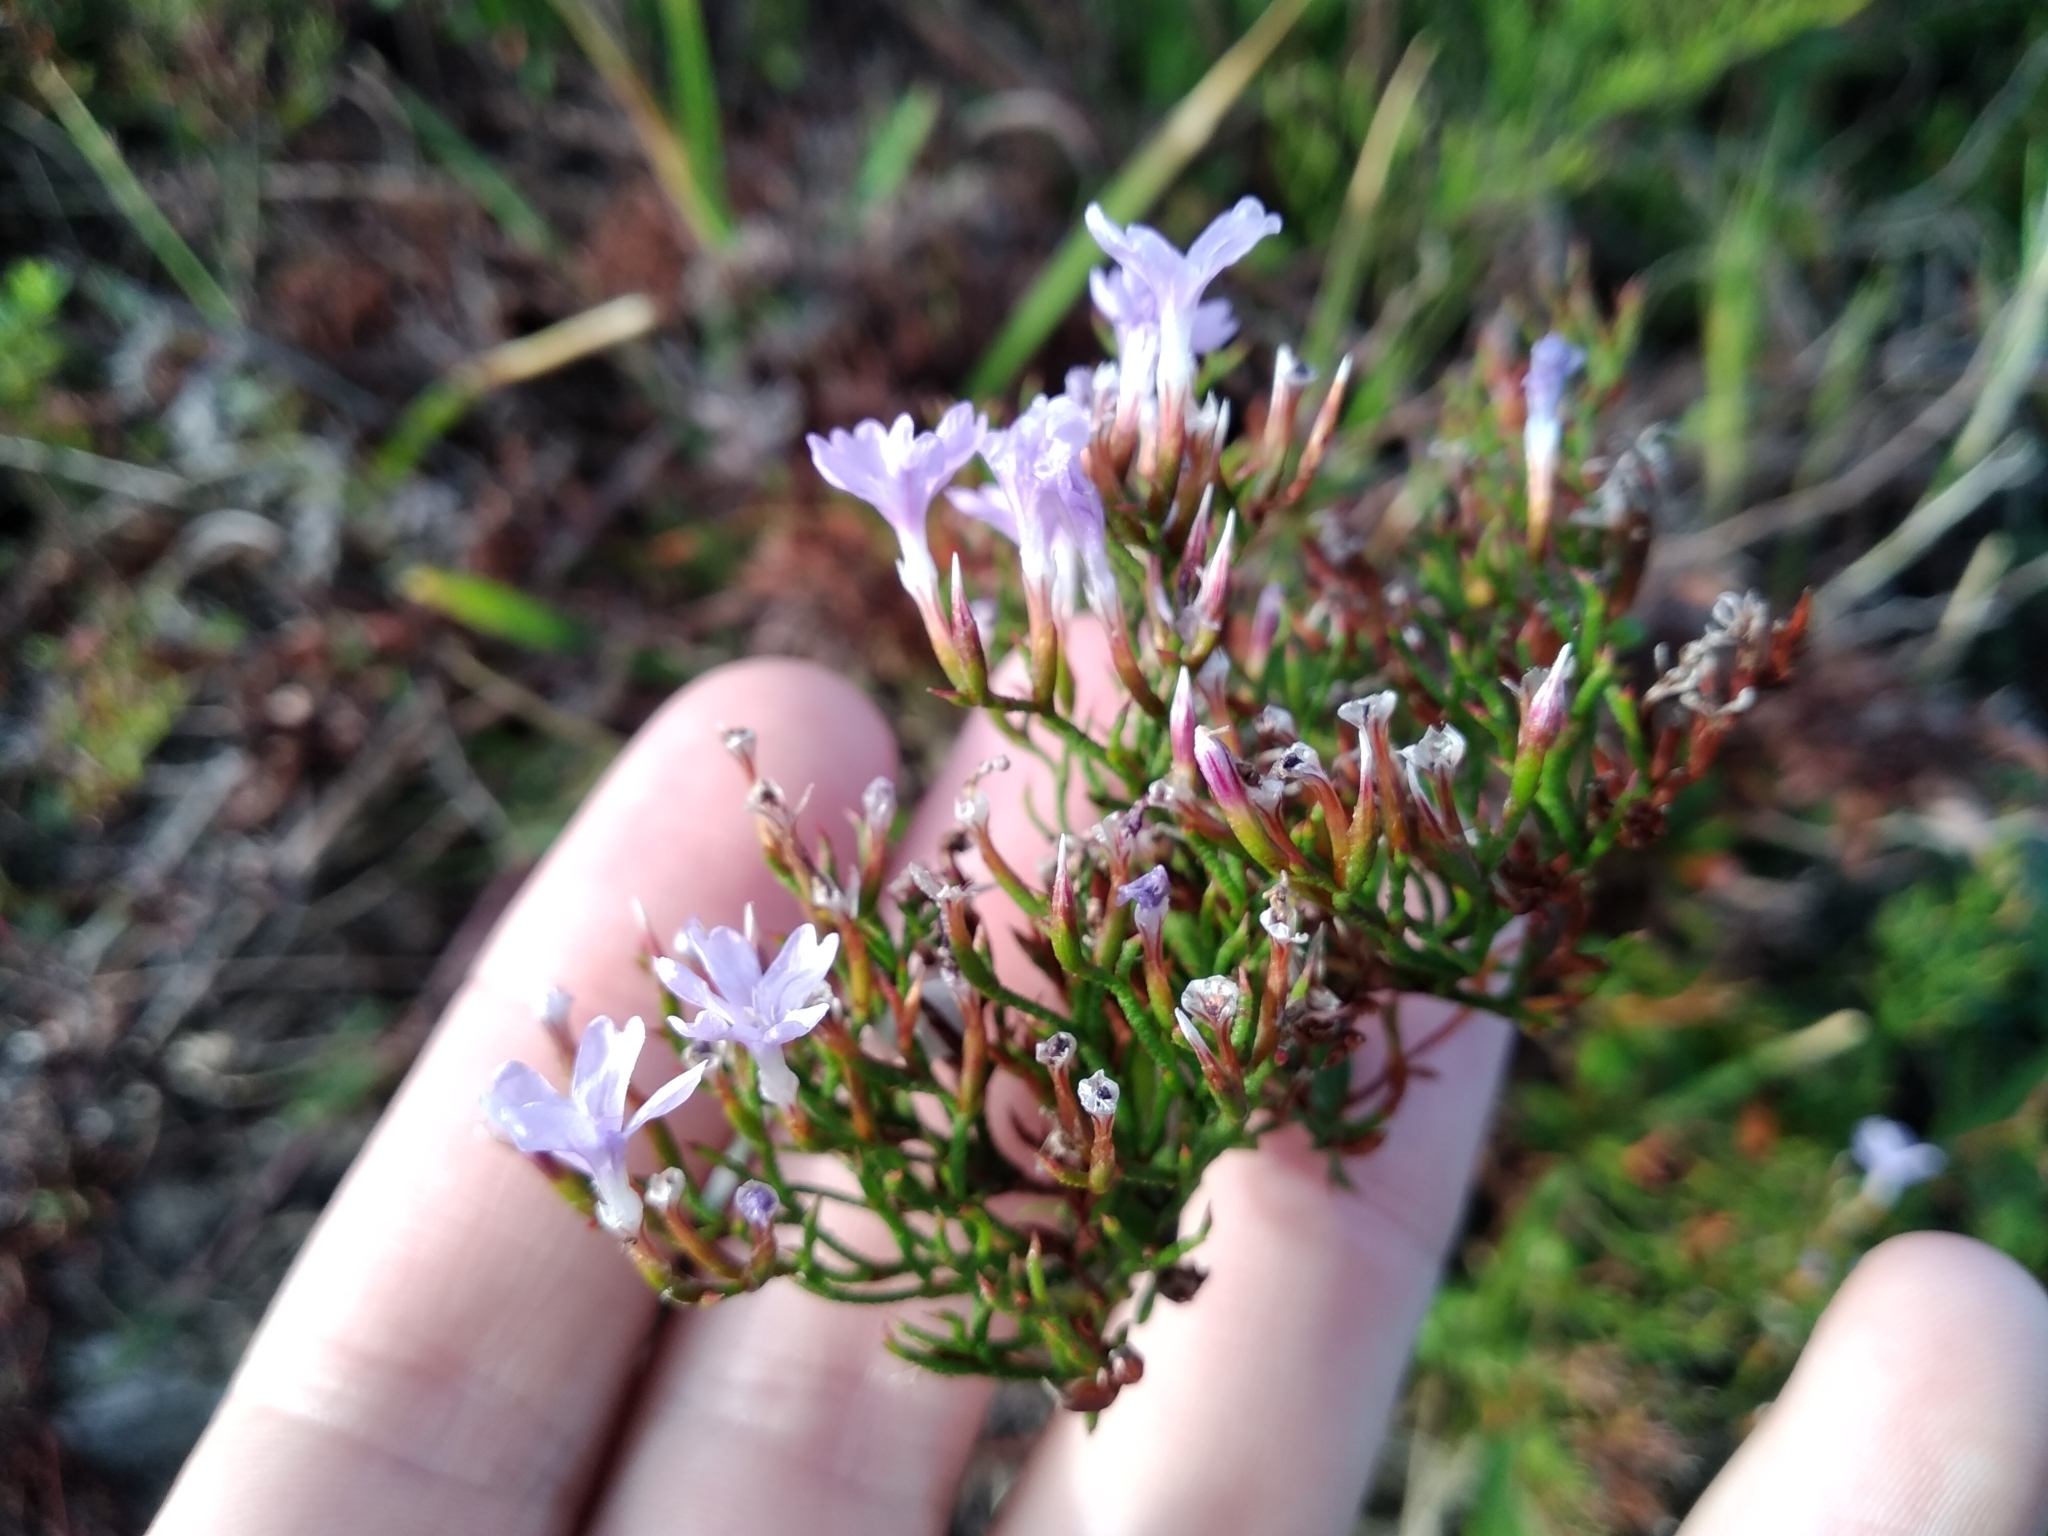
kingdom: Plantae
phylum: Tracheophyta
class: Magnoliopsida
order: Caryophyllales
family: Plumbaginaceae
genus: Limonium
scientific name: Limonium scabrum
